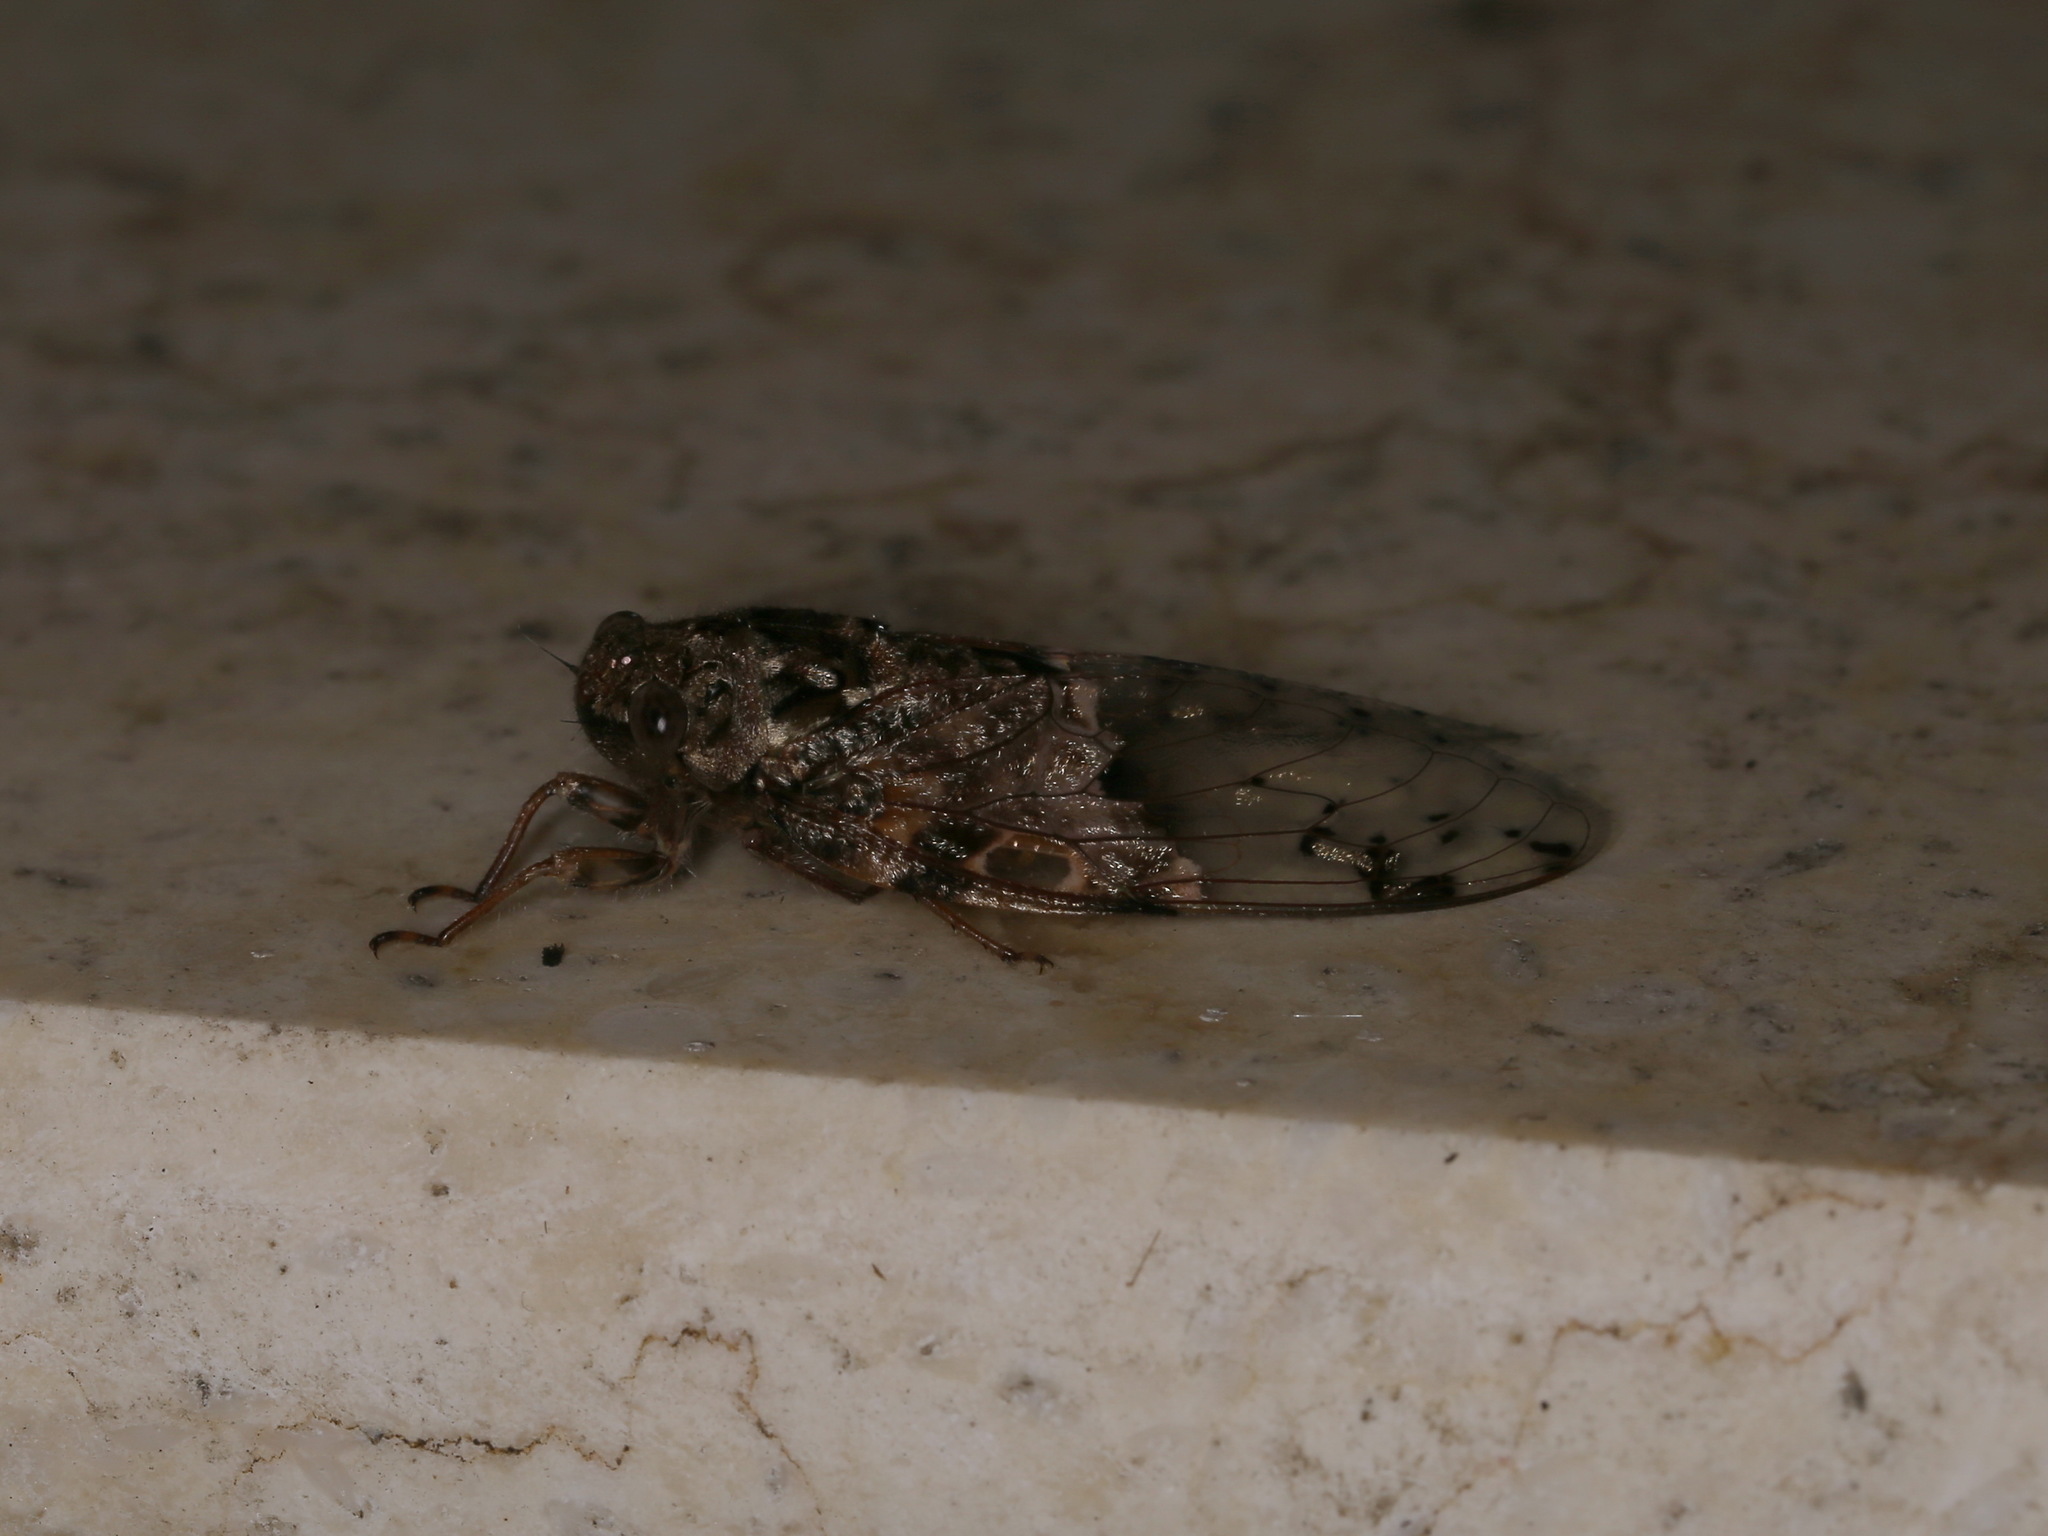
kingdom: Animalia
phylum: Arthropoda
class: Insecta
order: Hemiptera
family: Cicadidae
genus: Eopycna
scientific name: Eopycna coelestia
